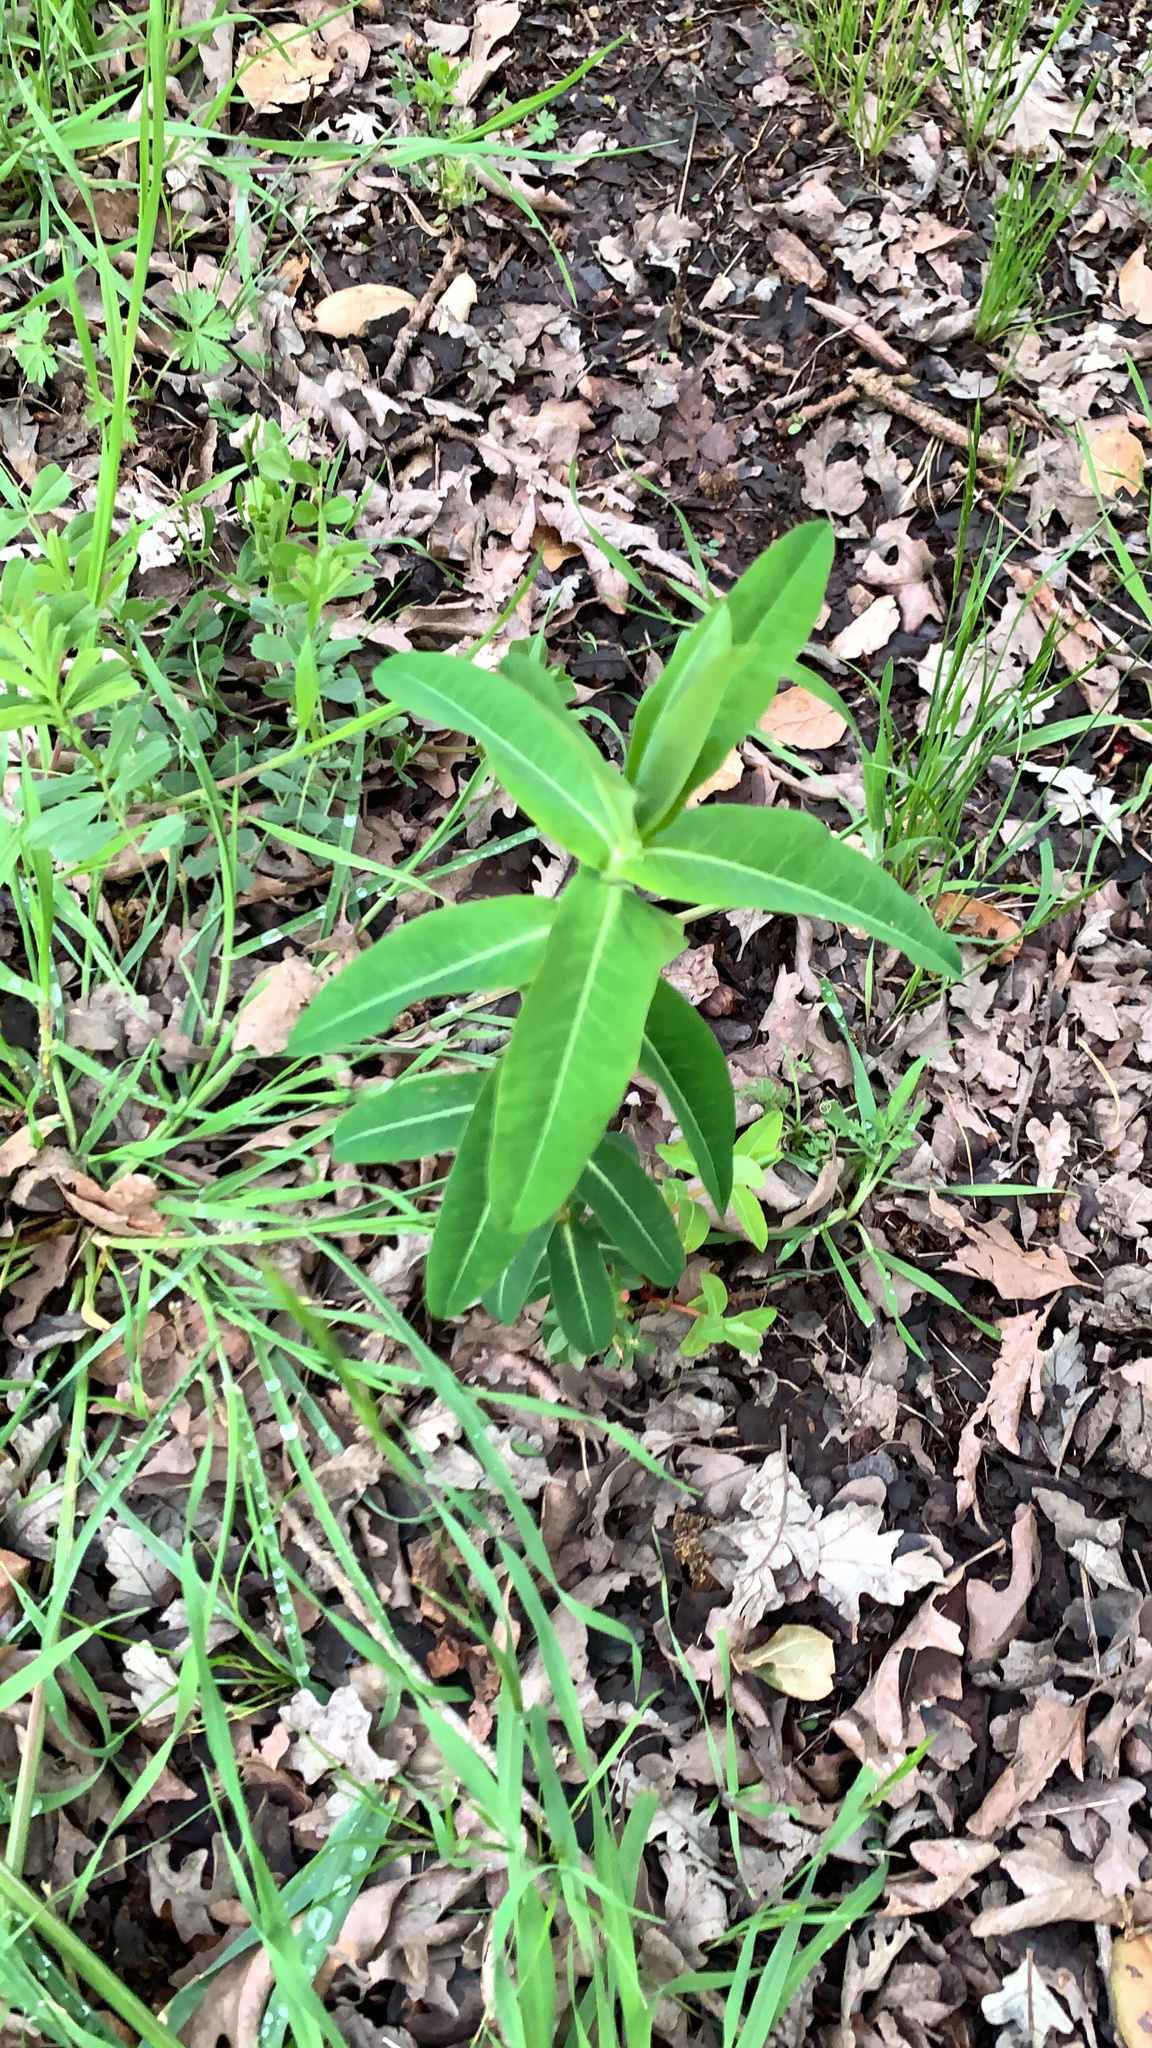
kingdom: Plantae
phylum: Tracheophyta
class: Magnoliopsida
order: Malpighiales
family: Euphorbiaceae
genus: Euphorbia
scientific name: Euphorbia oblongata
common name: Balkan spurge
